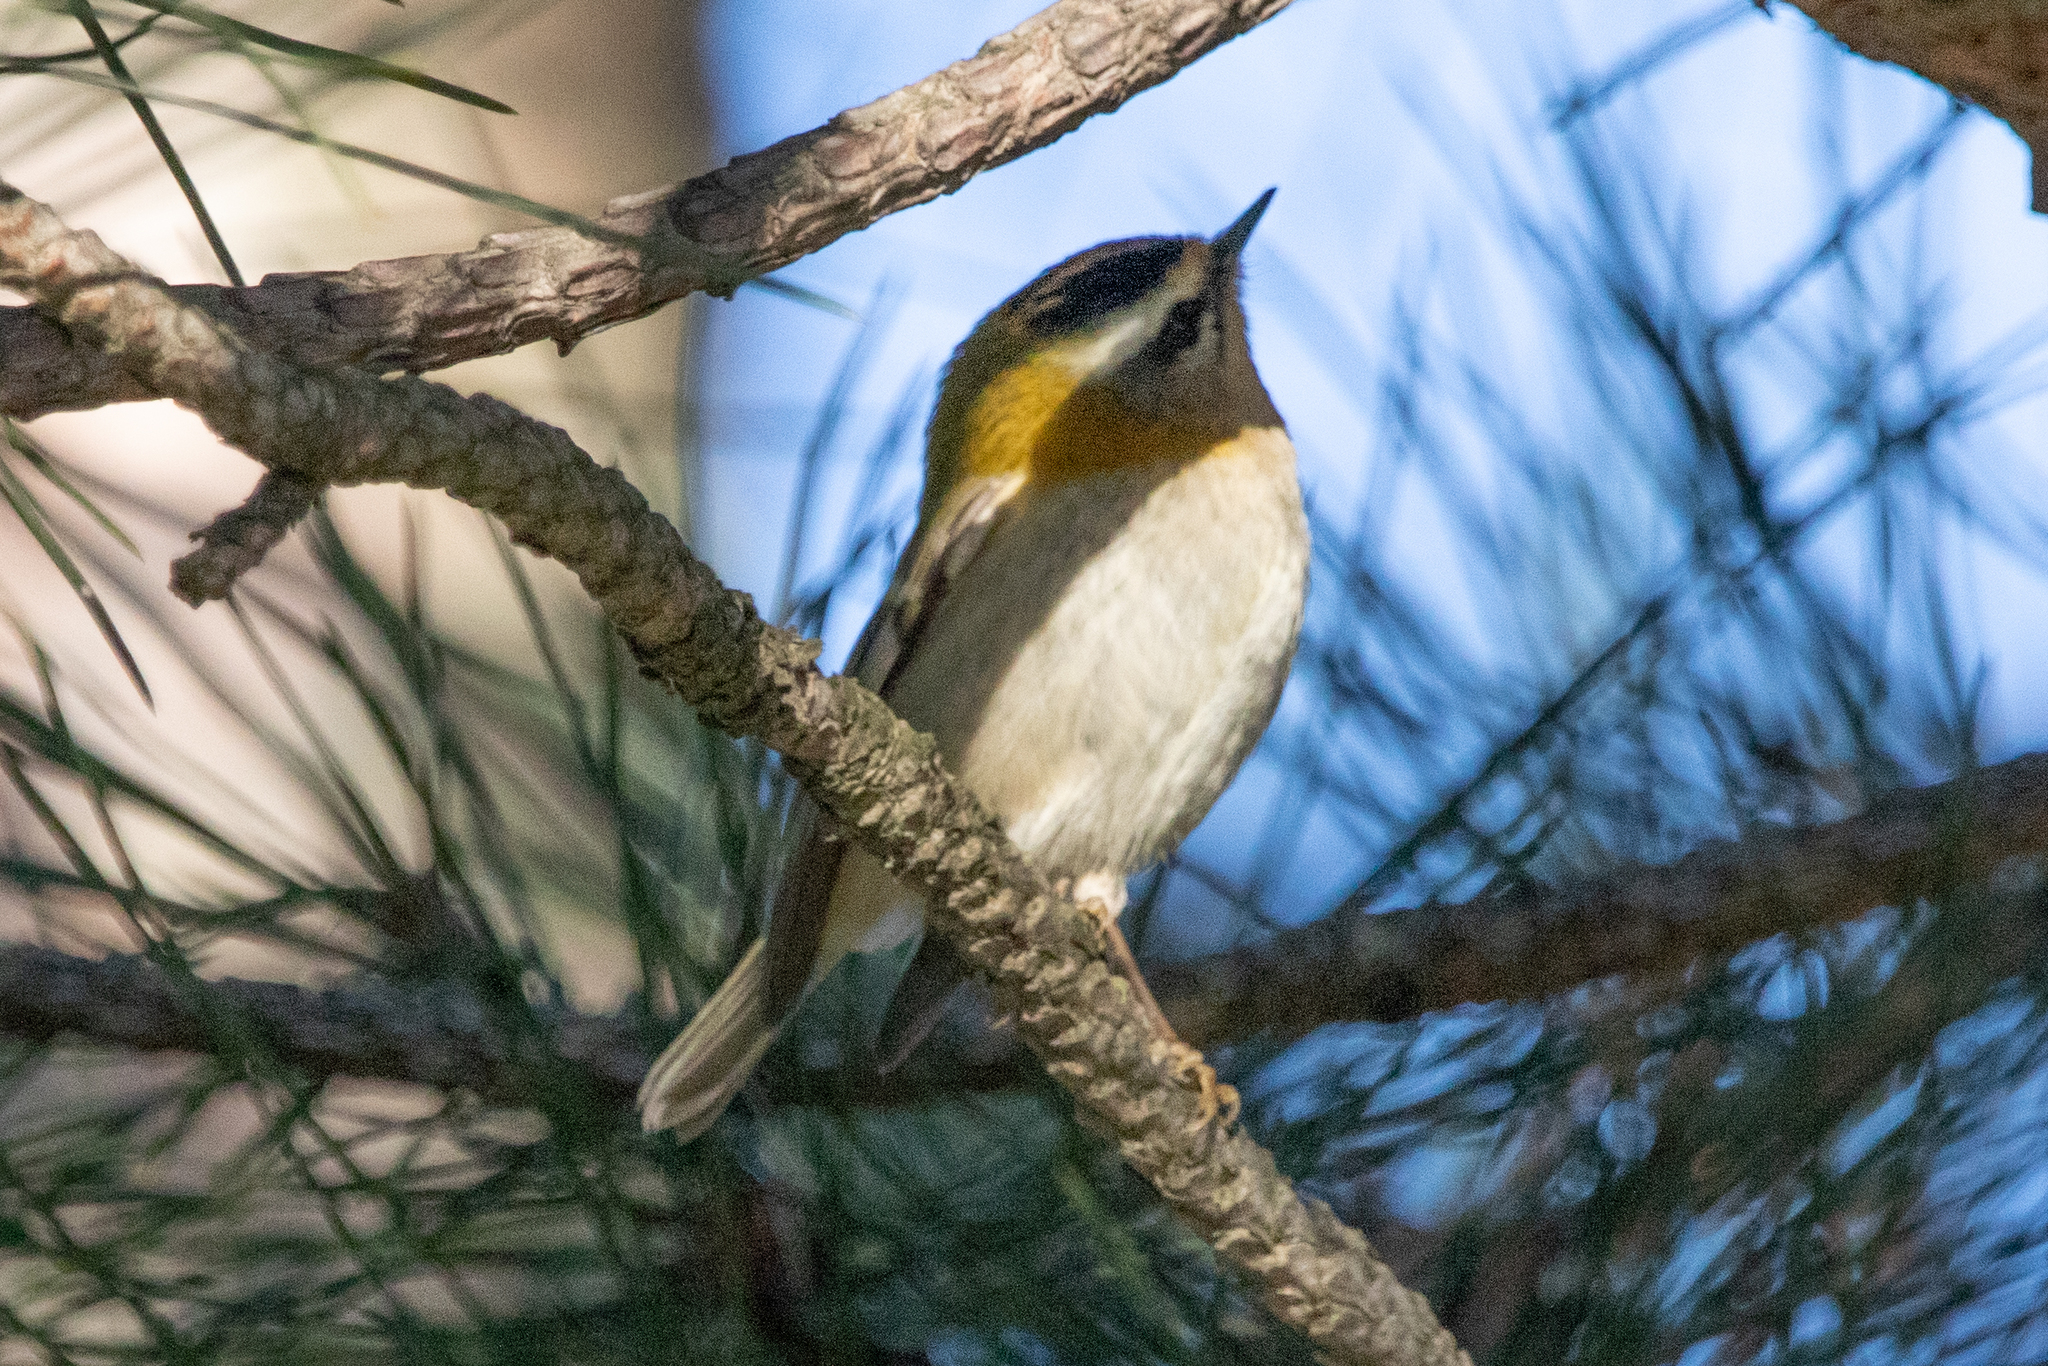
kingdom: Animalia
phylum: Chordata
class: Aves
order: Passeriformes
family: Regulidae
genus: Regulus
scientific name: Regulus ignicapilla
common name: Firecrest
